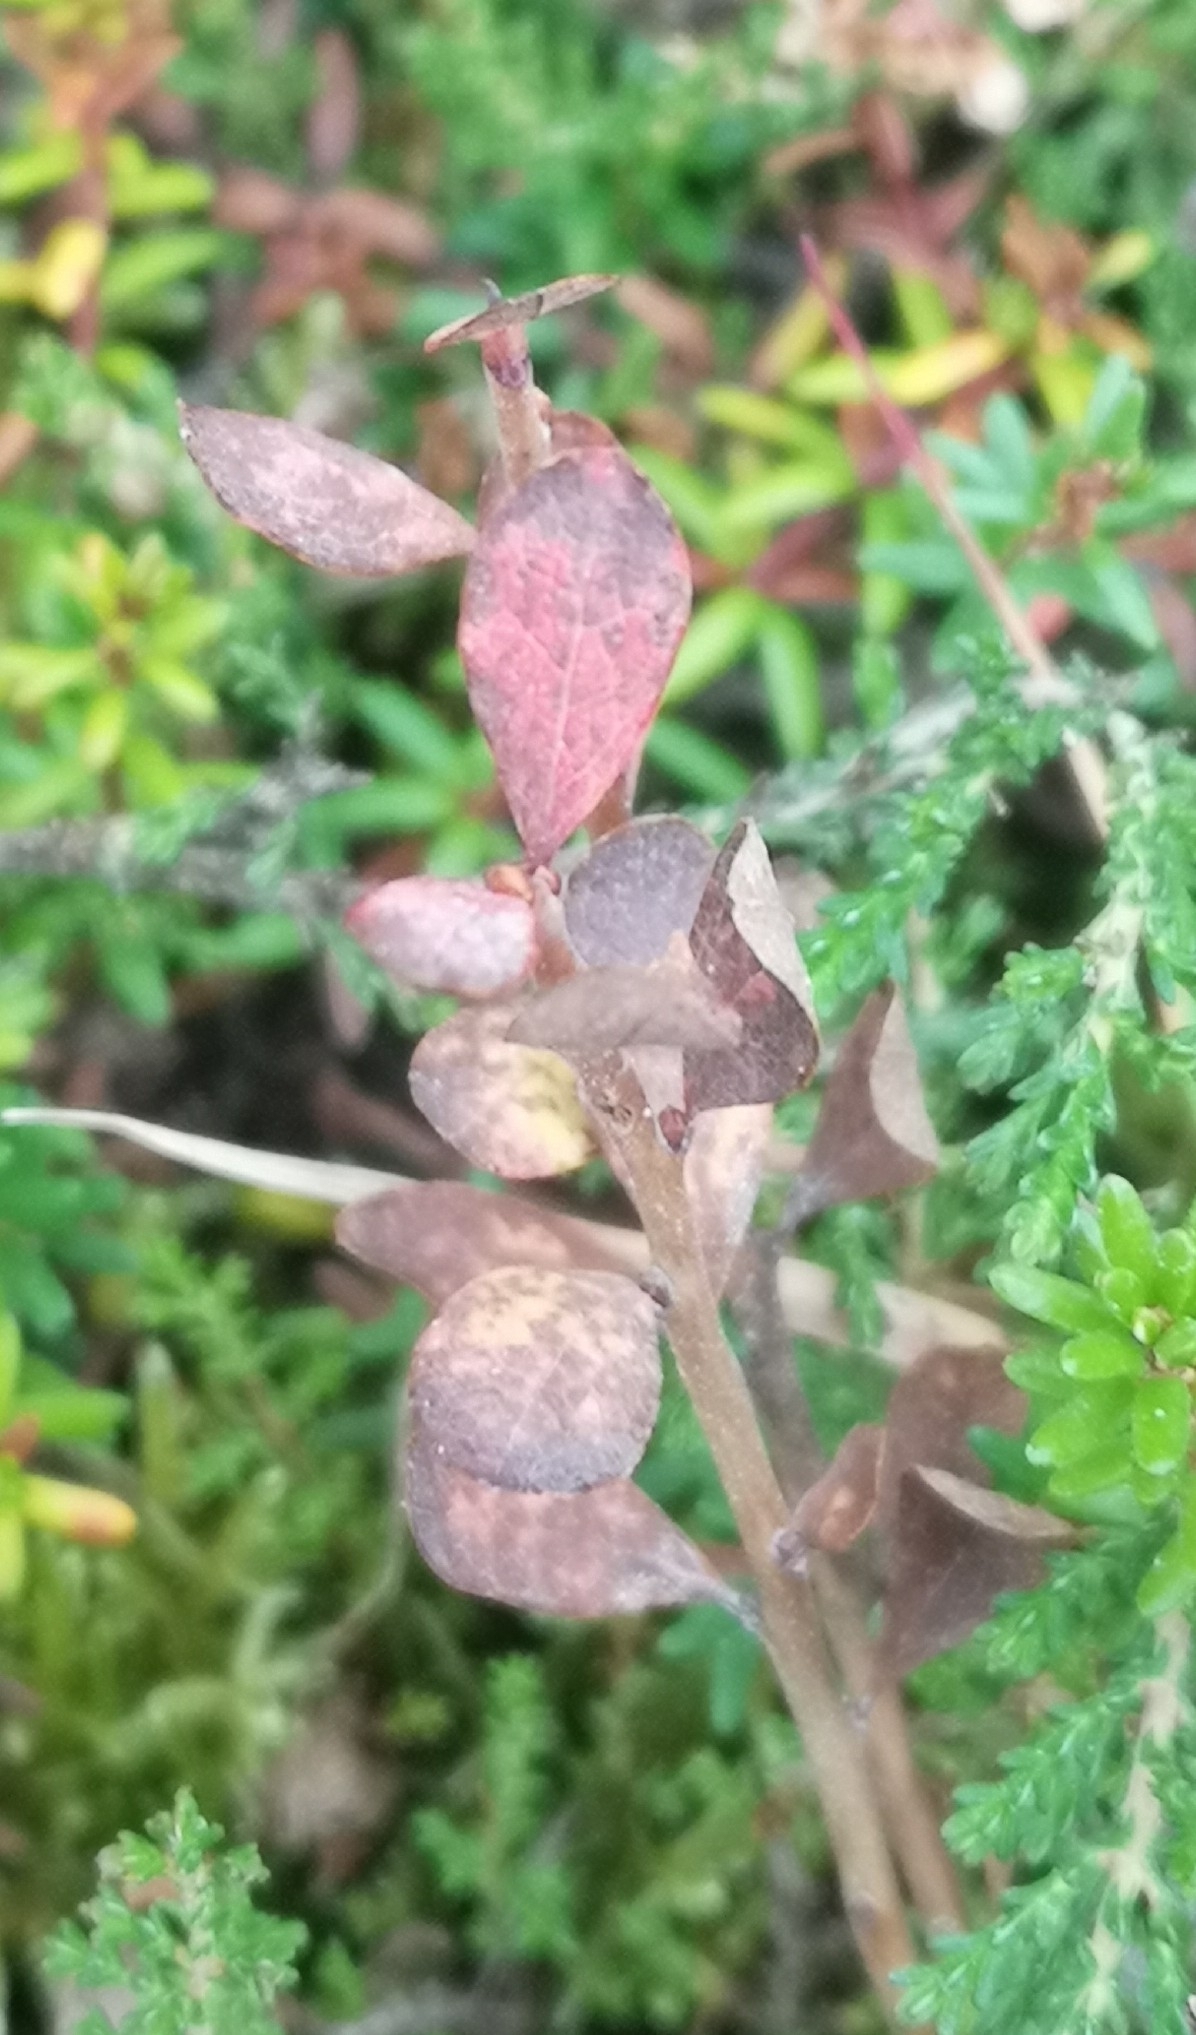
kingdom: Plantae
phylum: Tracheophyta
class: Magnoliopsida
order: Ericales
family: Ericaceae
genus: Vaccinium
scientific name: Vaccinium uliginosum
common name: Bog bilberry
